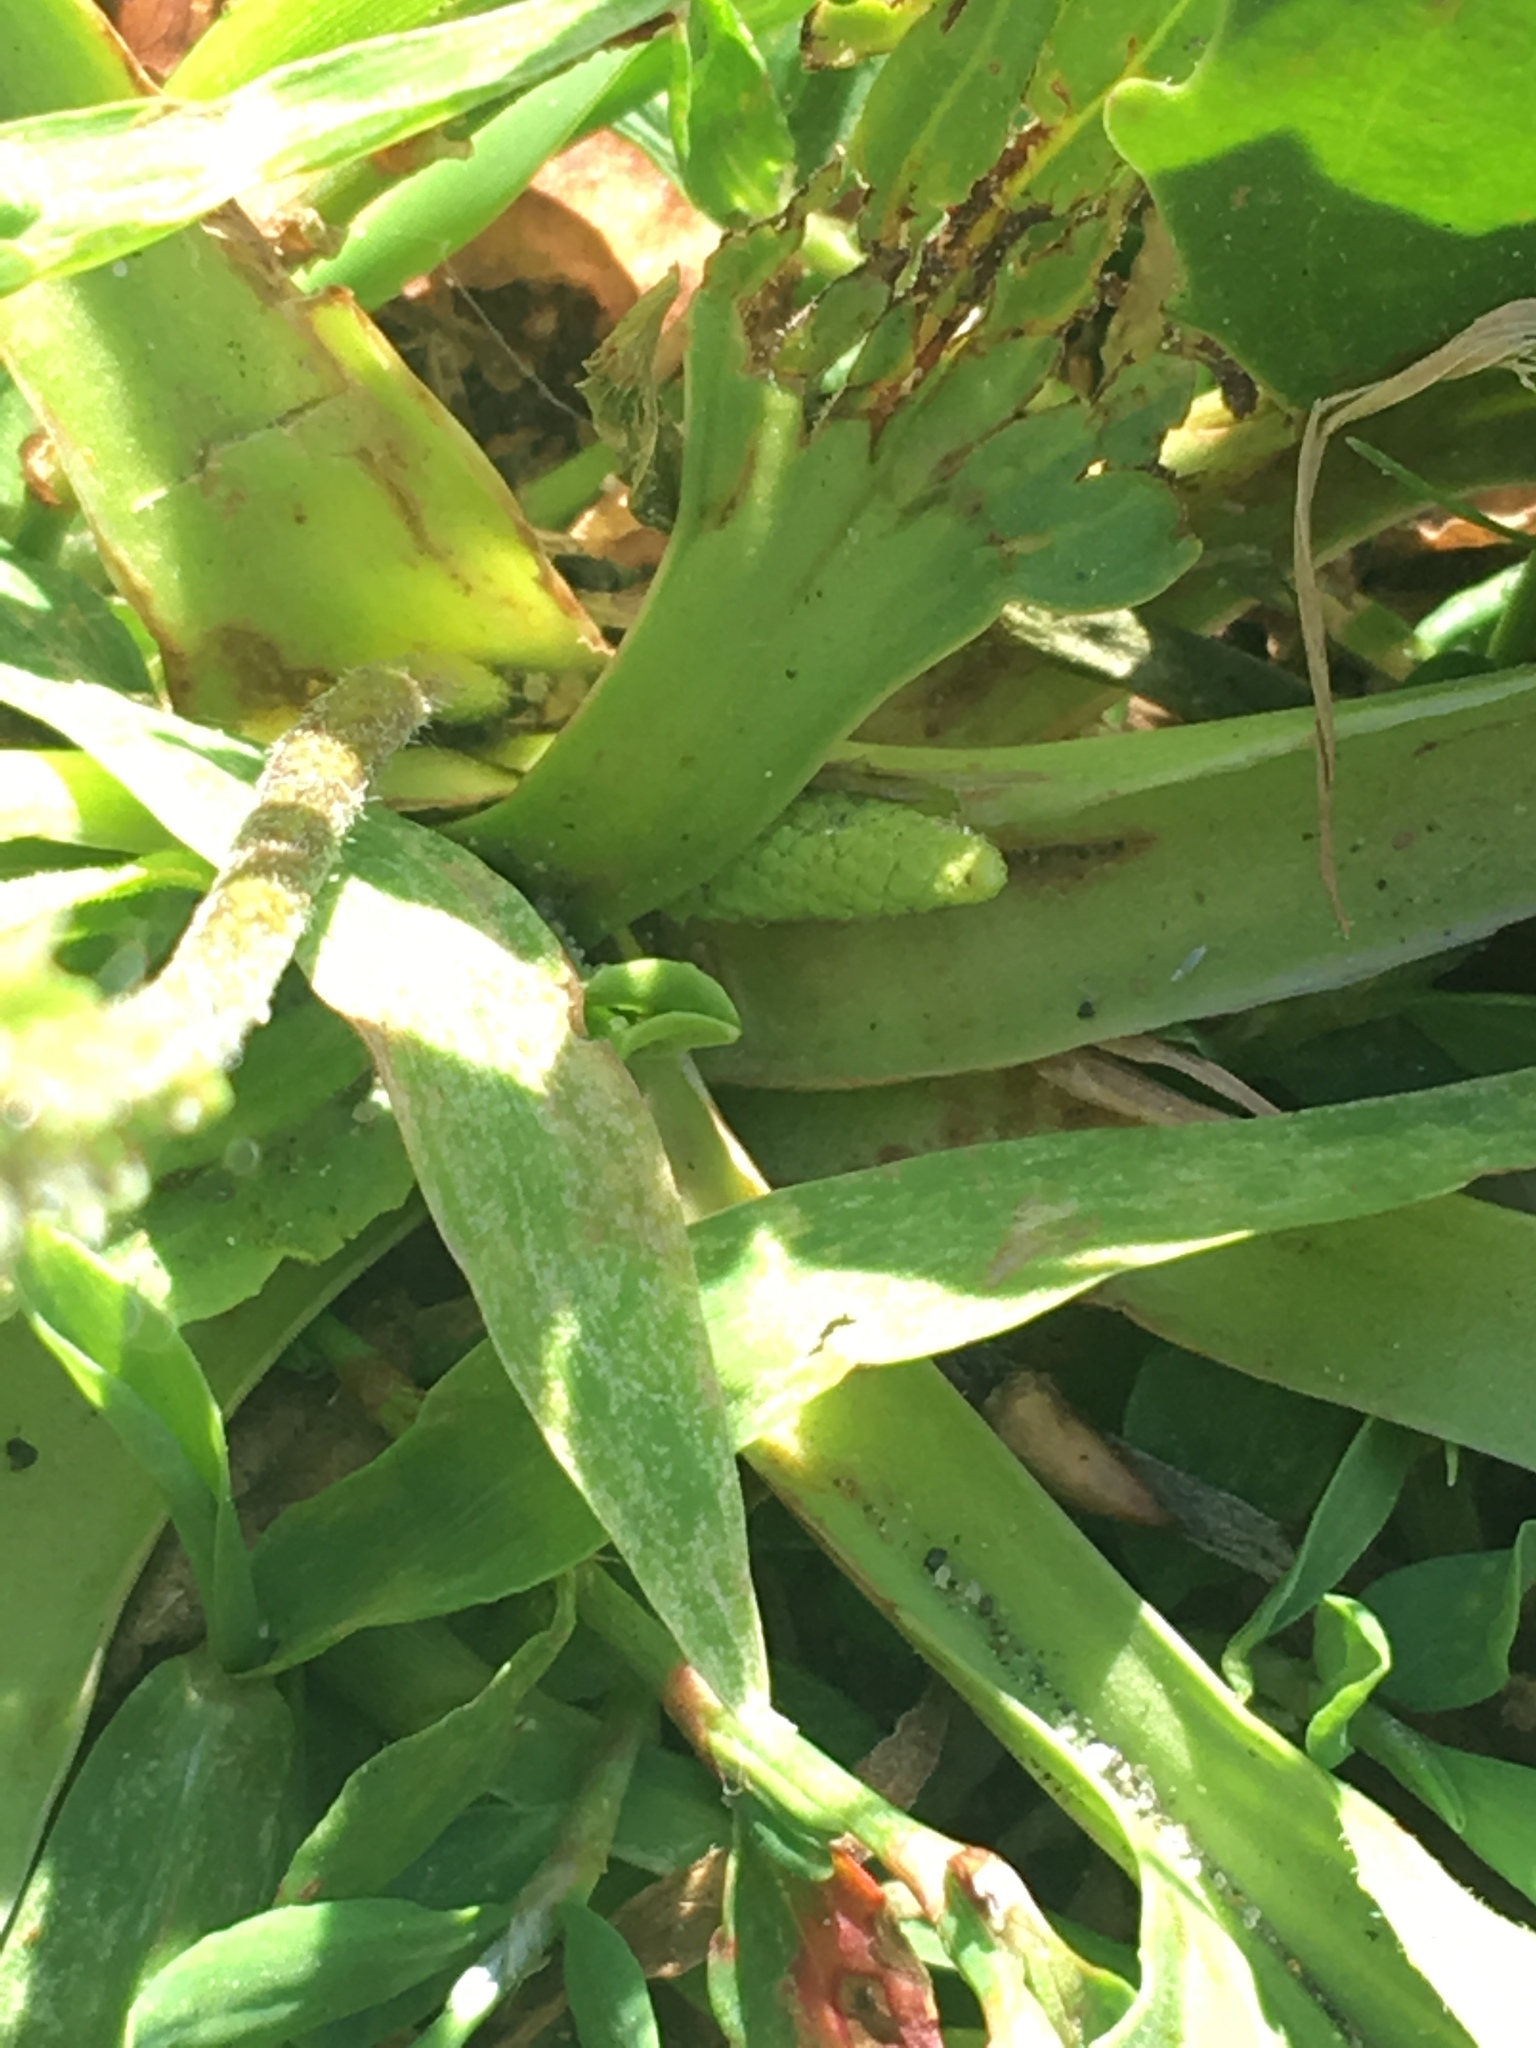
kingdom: Plantae
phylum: Tracheophyta
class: Magnoliopsida
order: Lamiales
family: Plantaginaceae
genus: Plantago
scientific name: Plantago major
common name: Common plantain
